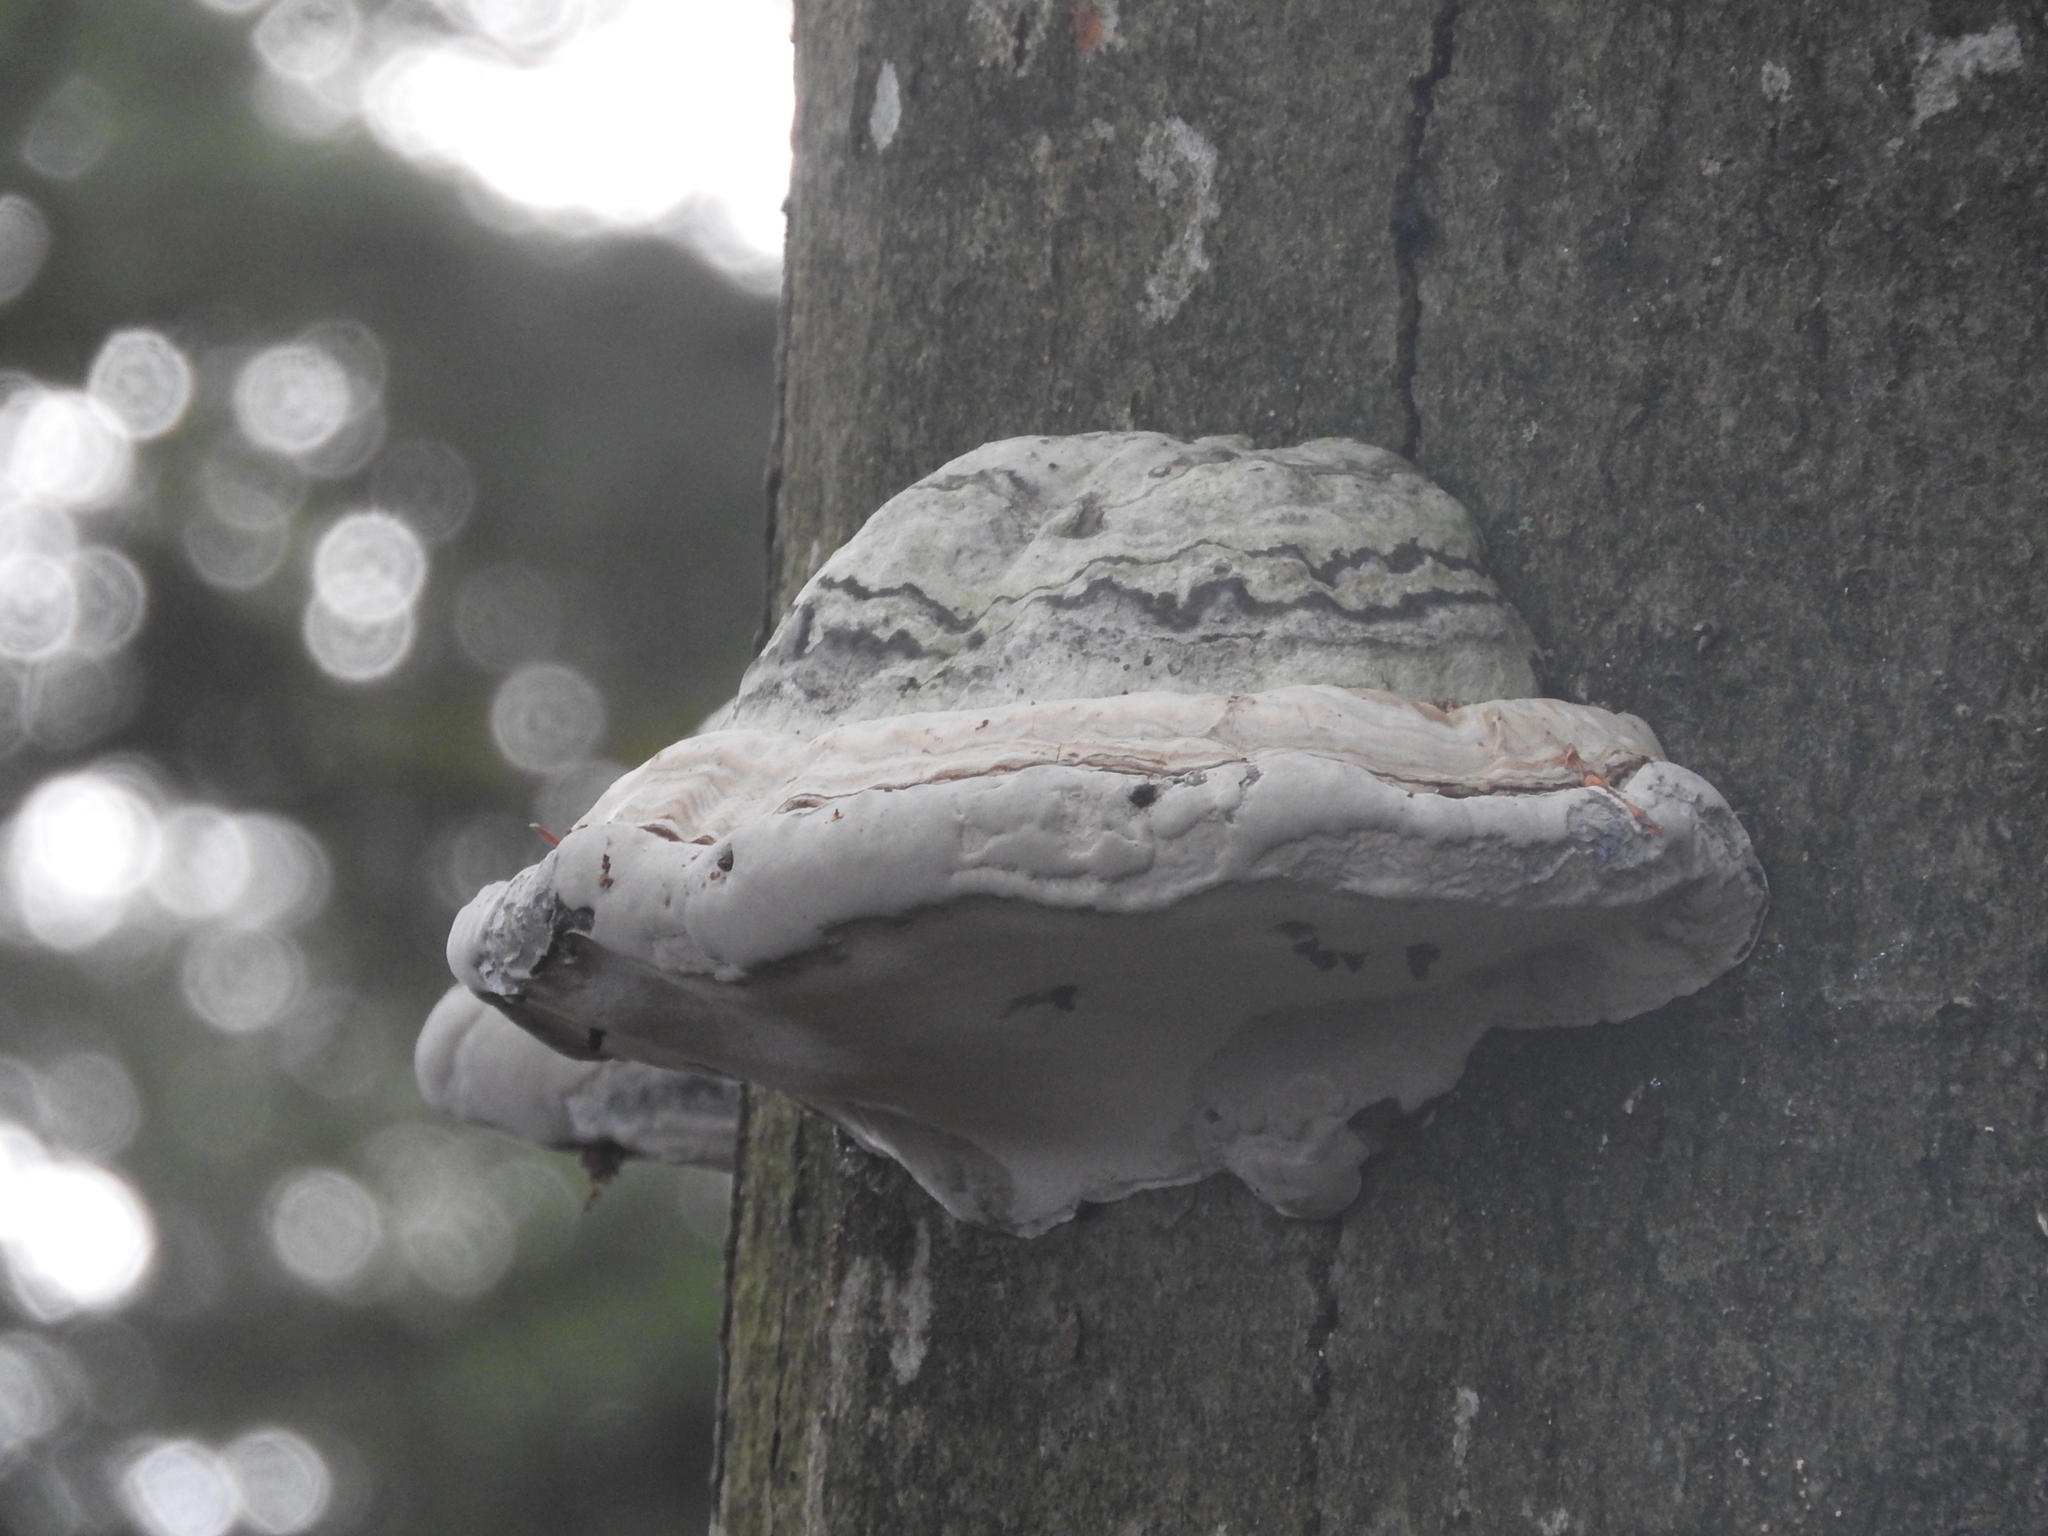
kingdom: Fungi
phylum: Basidiomycota
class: Agaricomycetes
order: Polyporales
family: Polyporaceae
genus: Fomes
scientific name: Fomes fomentarius
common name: Hoof fungus
